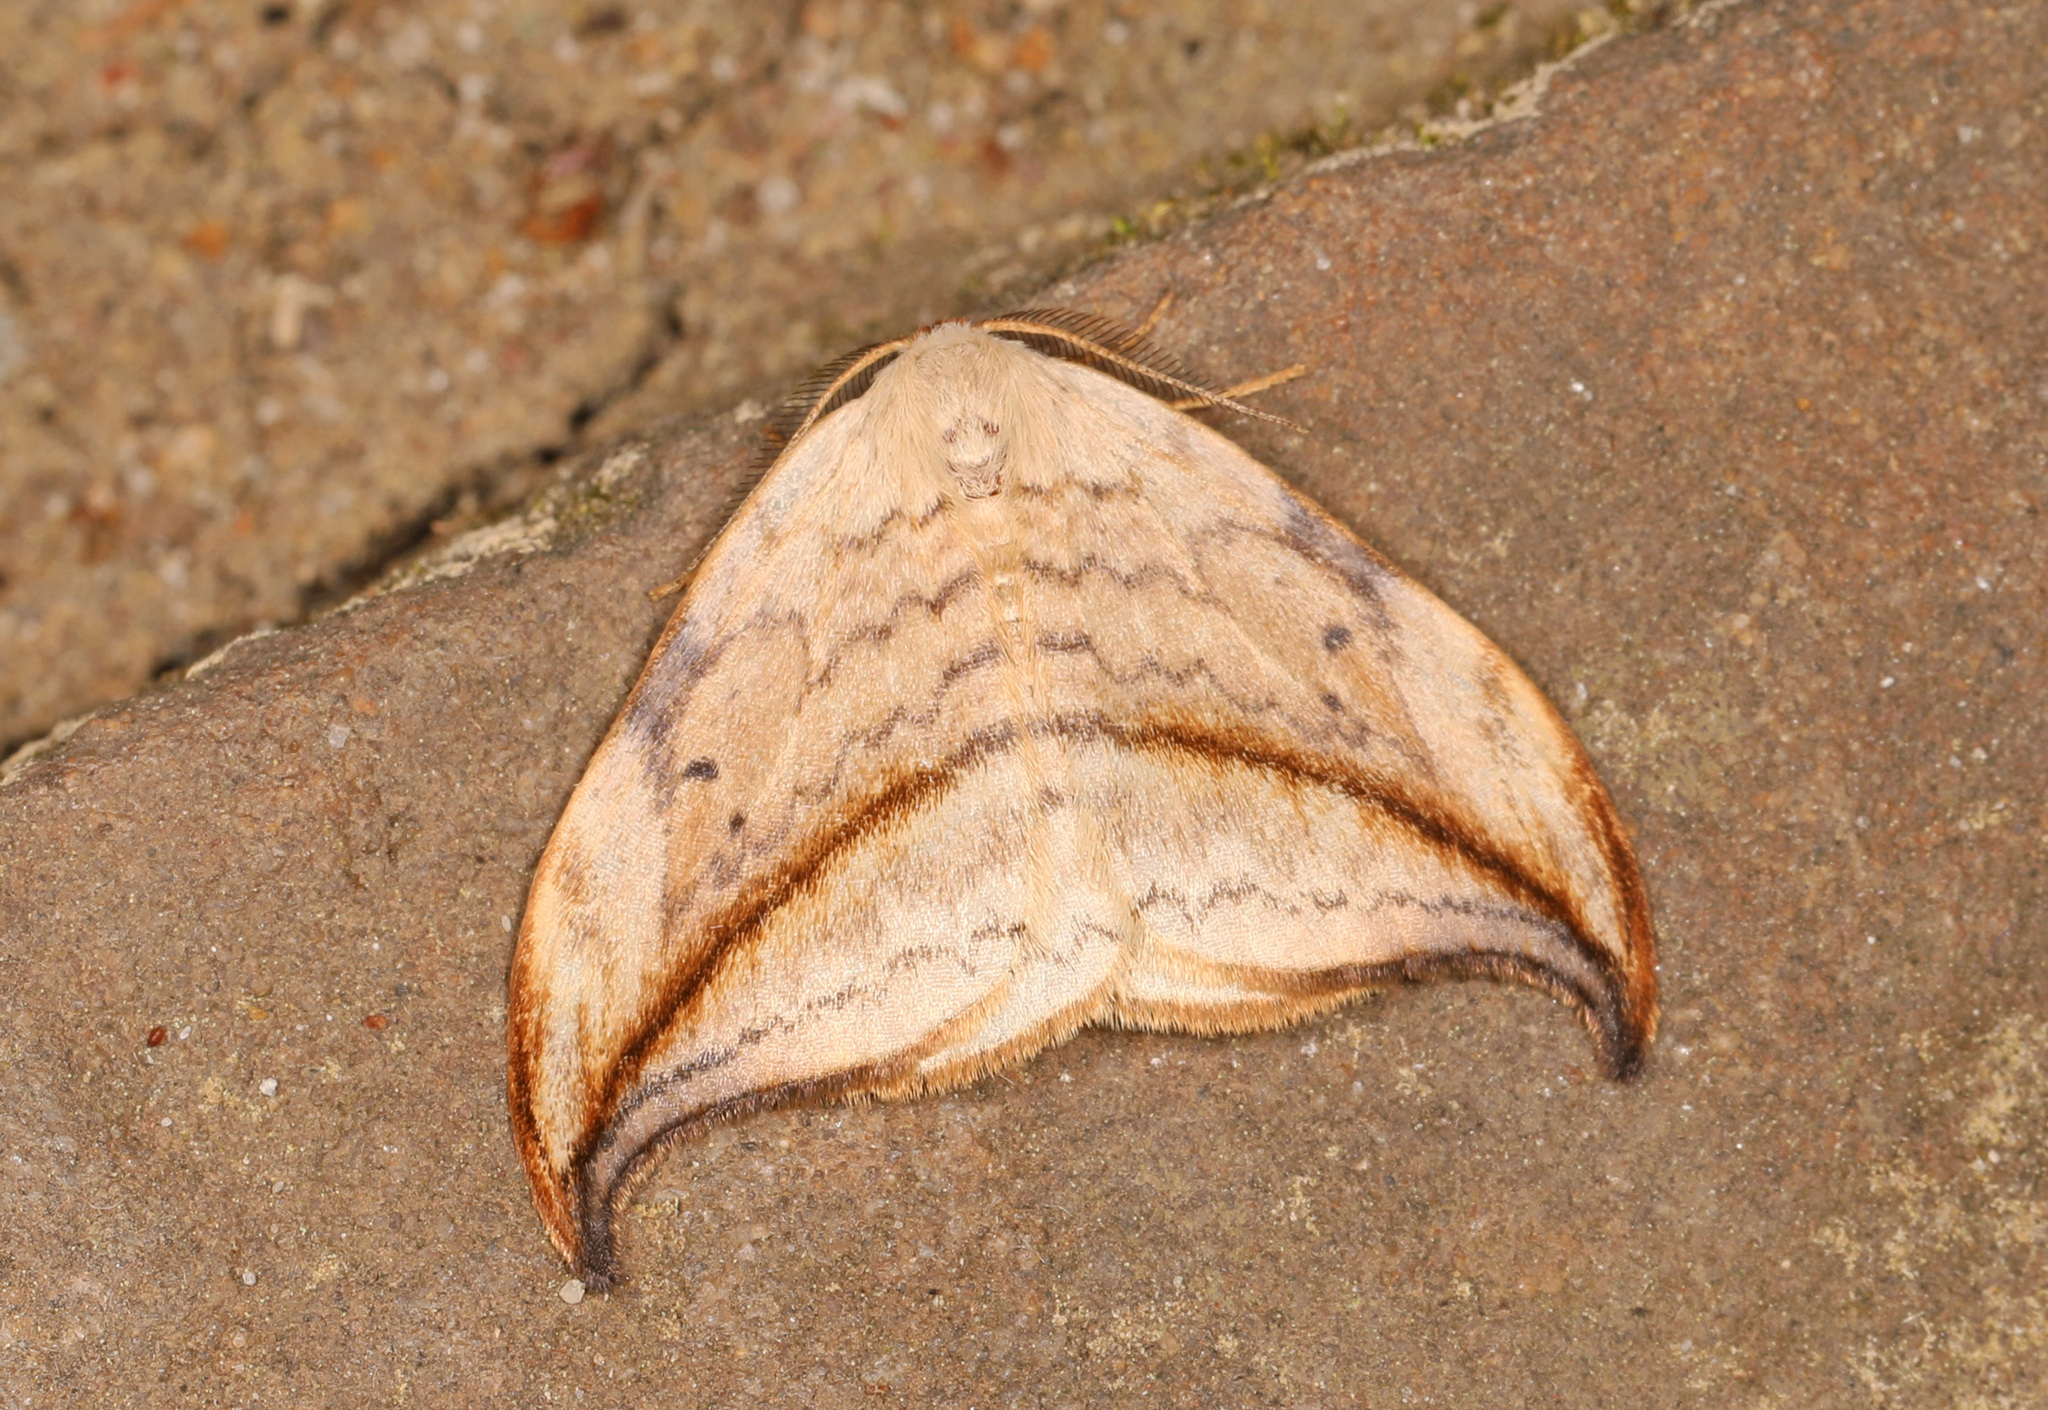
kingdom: Animalia
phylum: Arthropoda
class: Insecta
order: Lepidoptera
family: Drepanidae
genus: Drepana
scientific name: Drepana arcuata
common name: Arched hooktip moth
